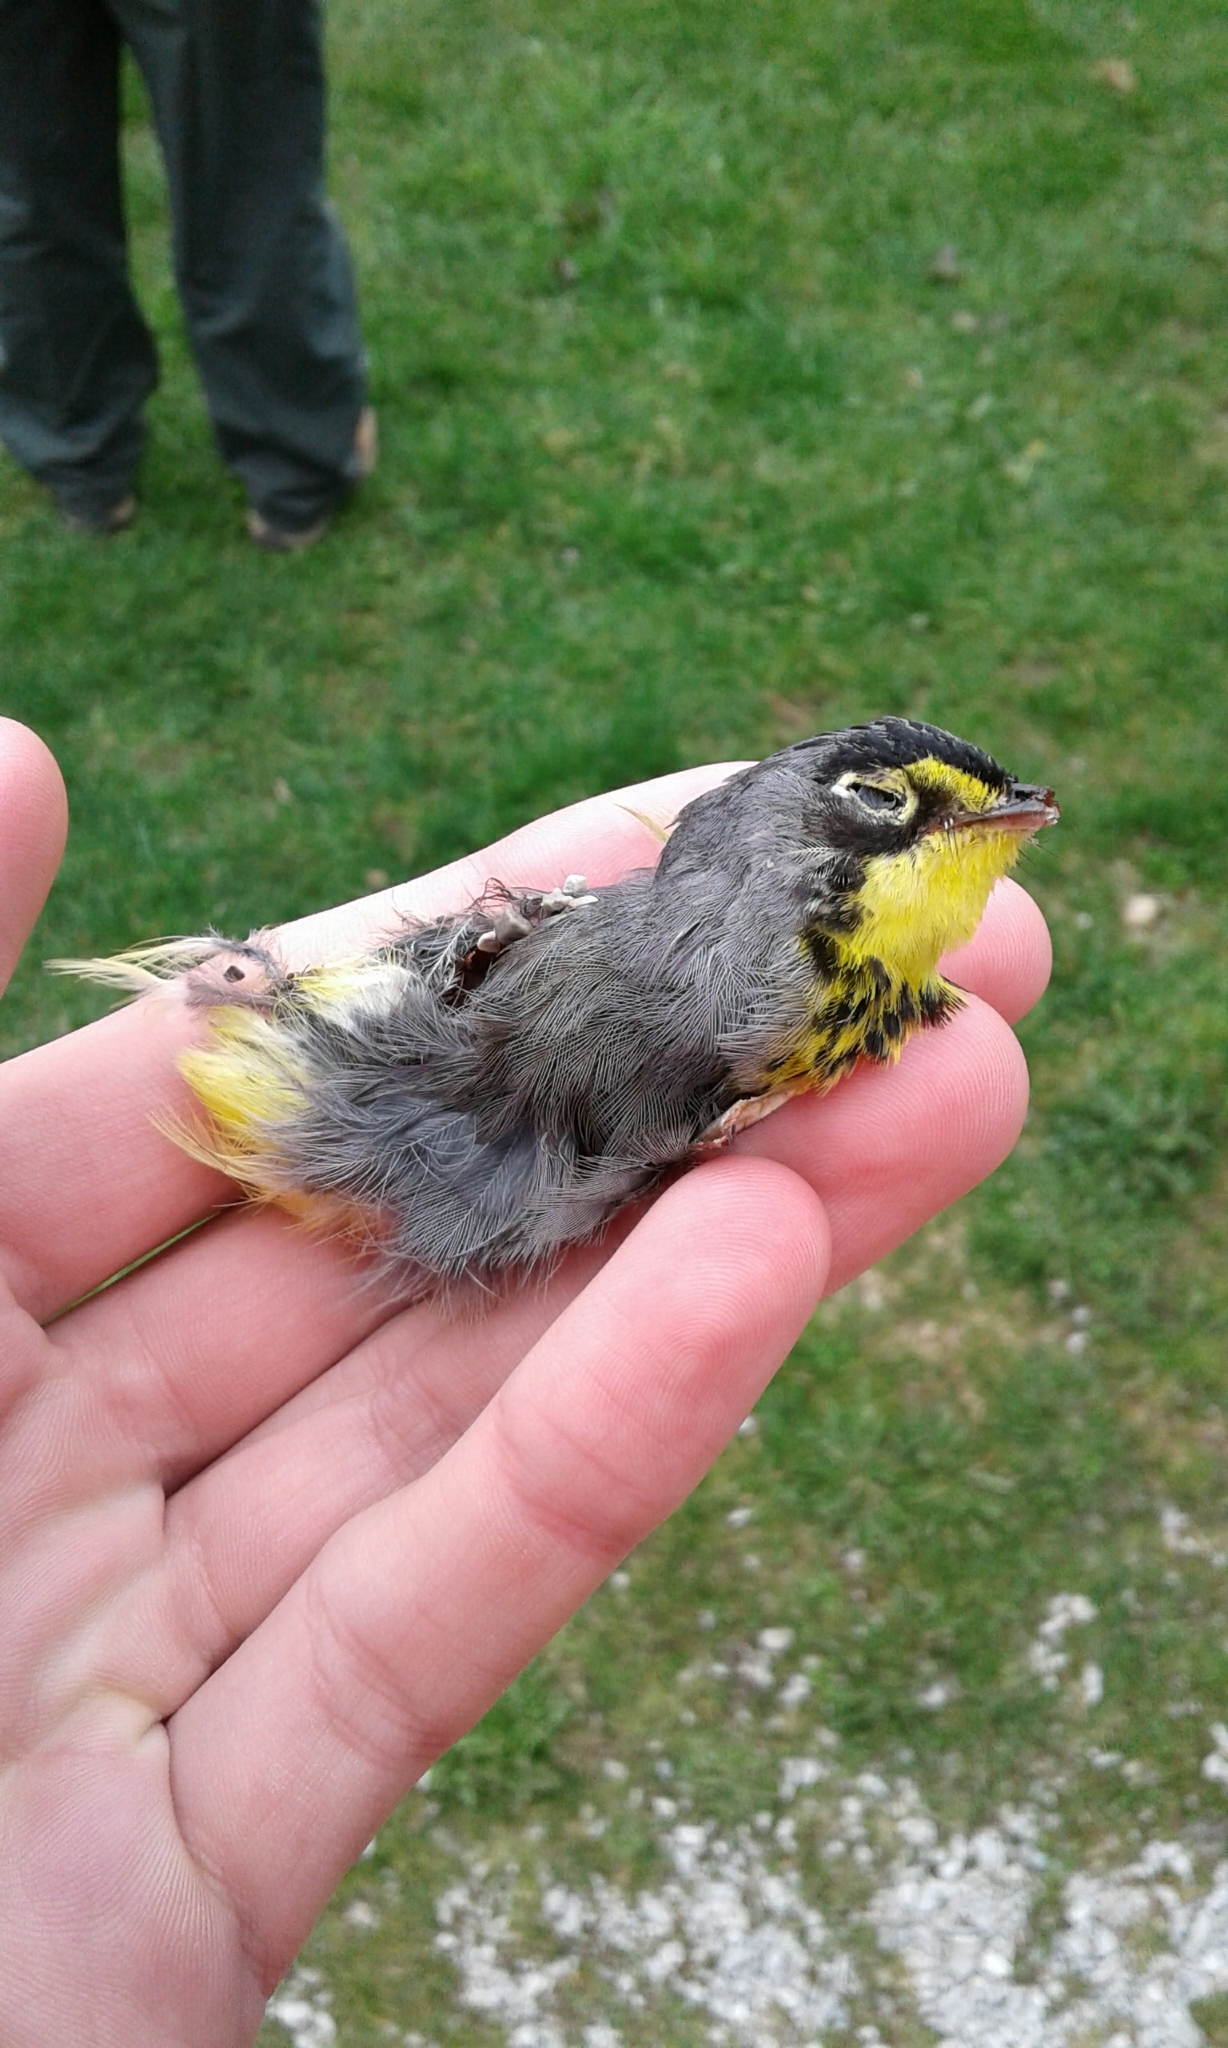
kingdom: Animalia
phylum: Chordata
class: Aves
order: Passeriformes
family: Parulidae
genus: Cardellina
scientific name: Cardellina canadensis
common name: Canada warbler
